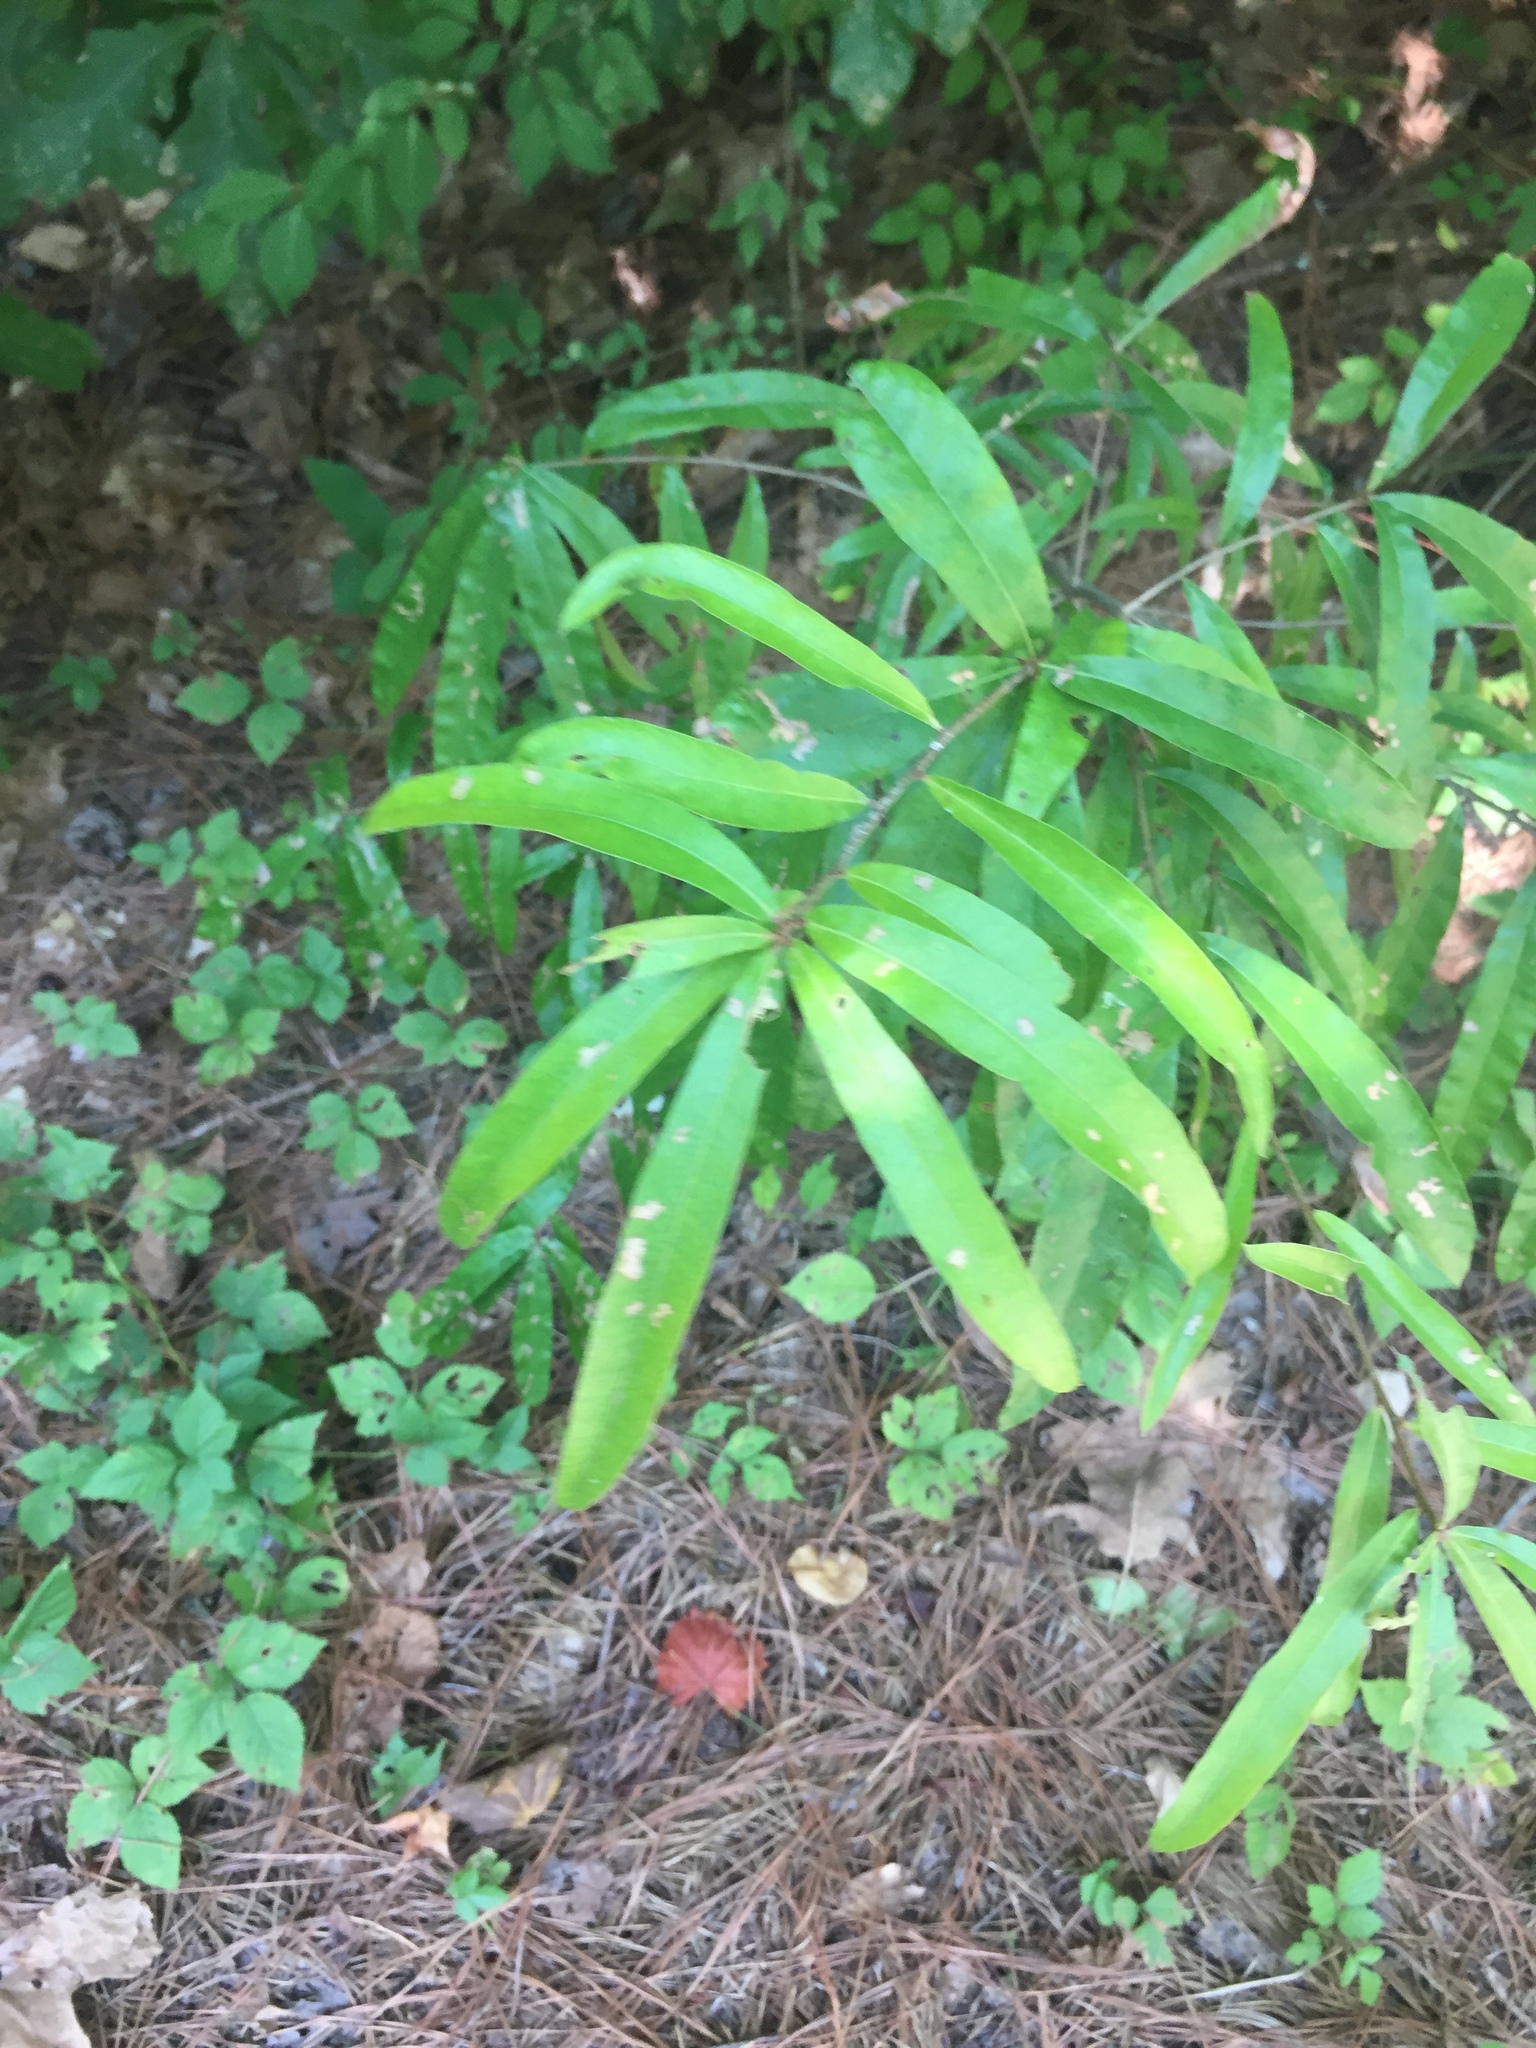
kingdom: Plantae
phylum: Tracheophyta
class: Magnoliopsida
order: Fagales
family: Fagaceae
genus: Quercus
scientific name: Quercus phellos
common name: Willow oak
